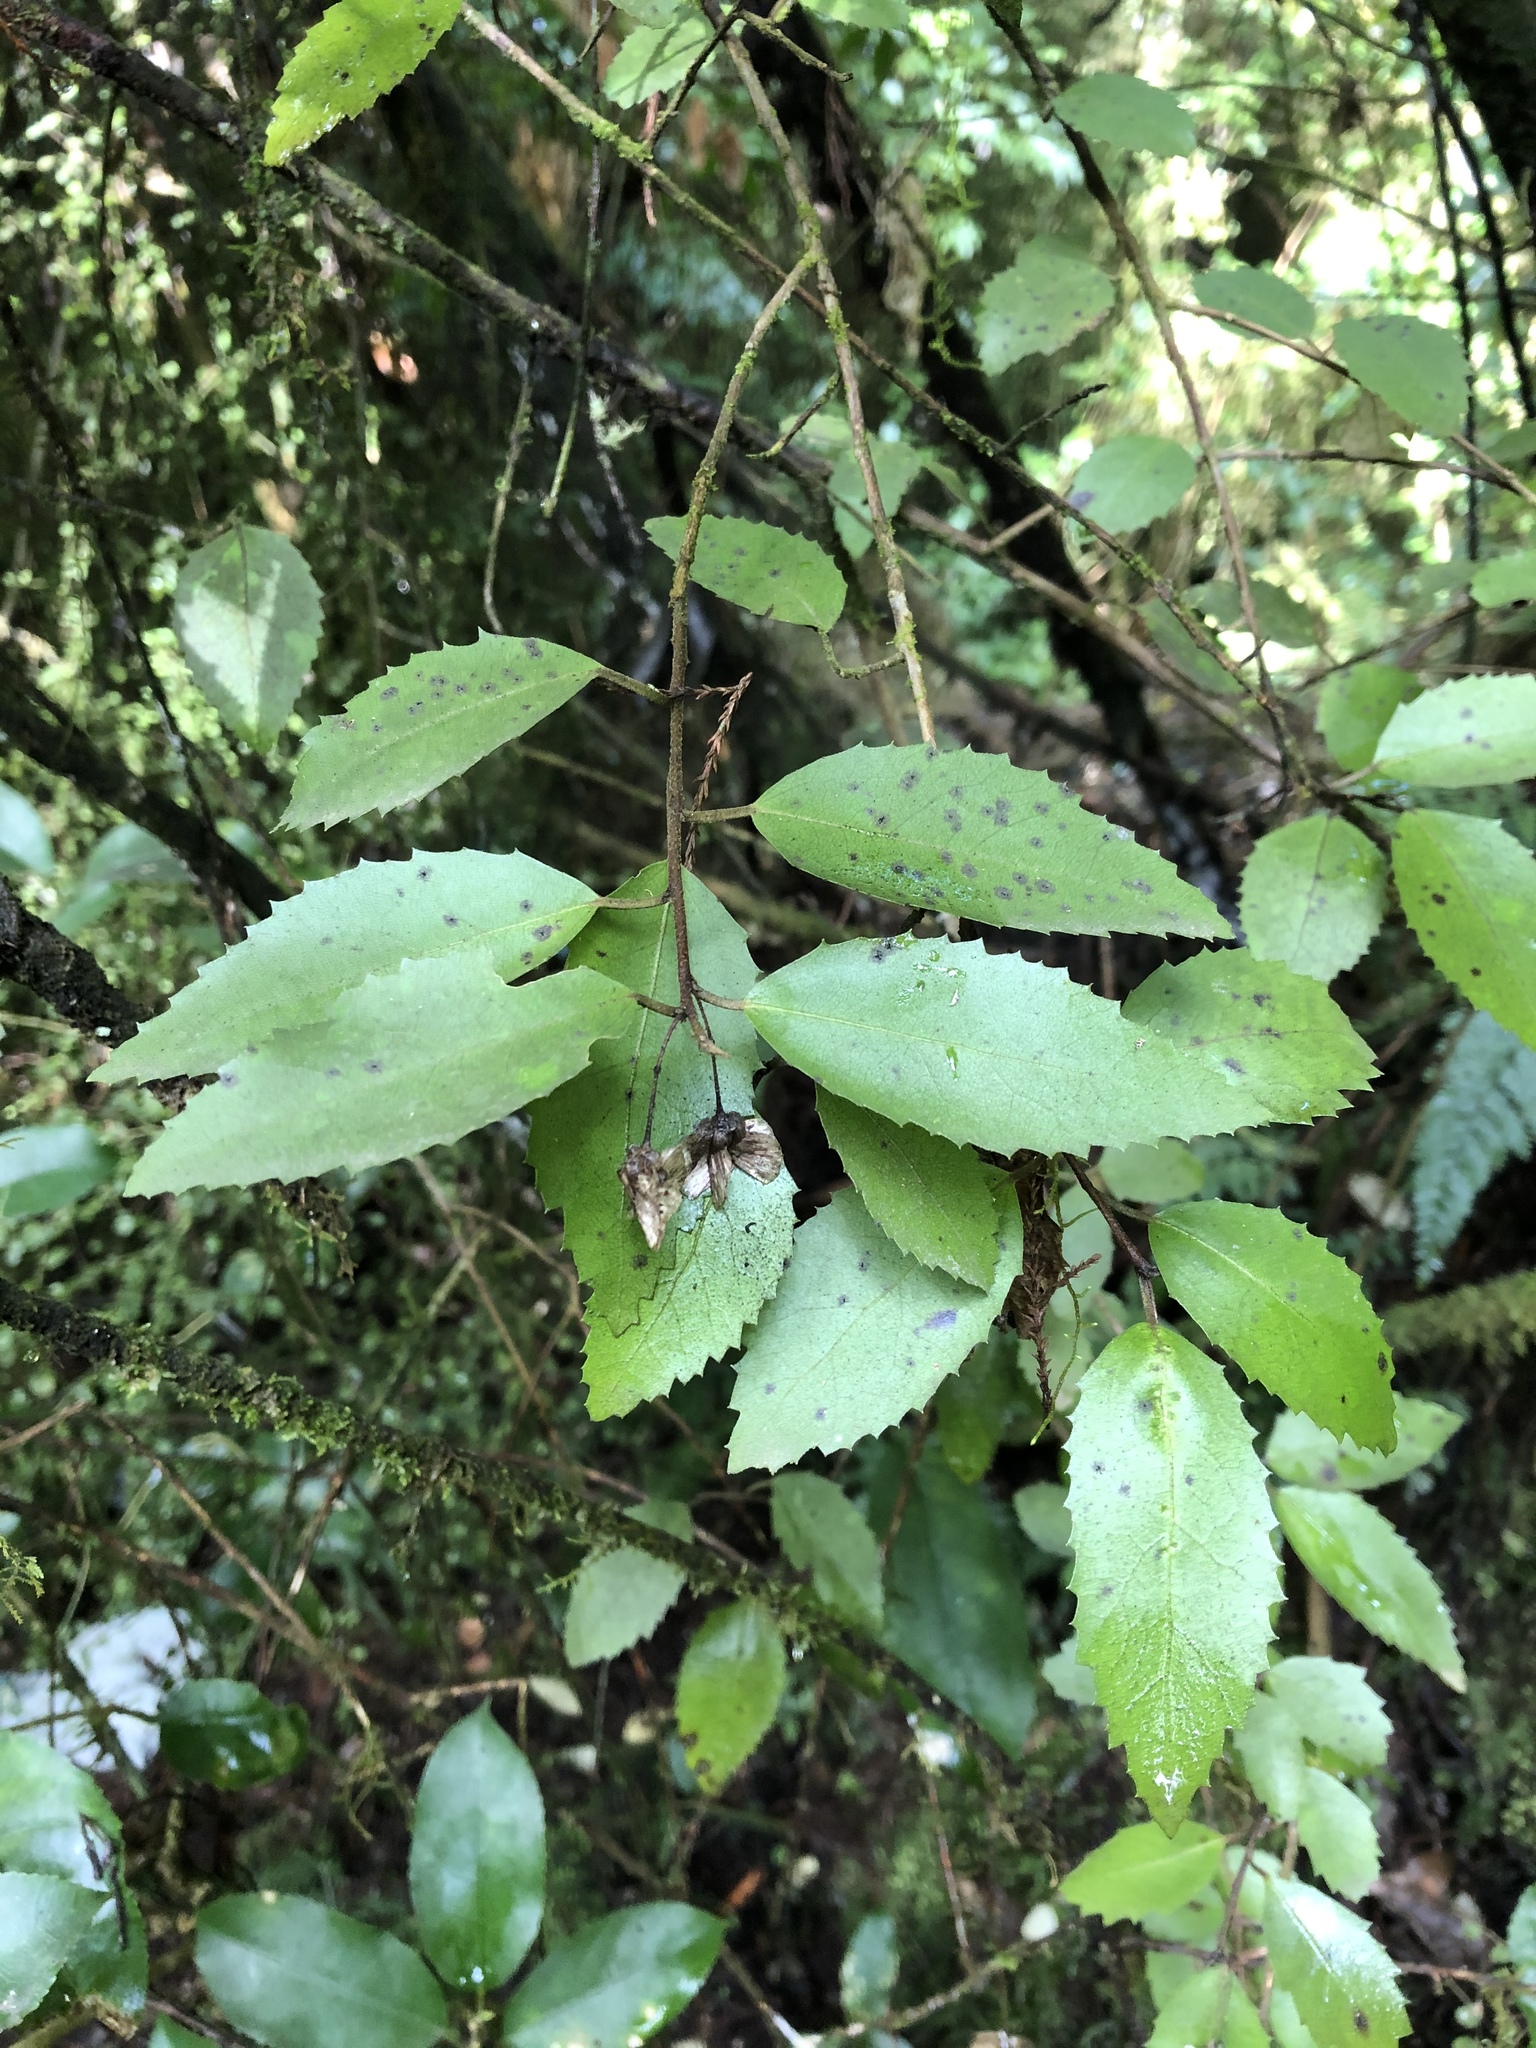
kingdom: Plantae
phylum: Tracheophyta
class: Magnoliopsida
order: Malvales
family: Malvaceae
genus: Hoheria
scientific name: Hoheria ovata
